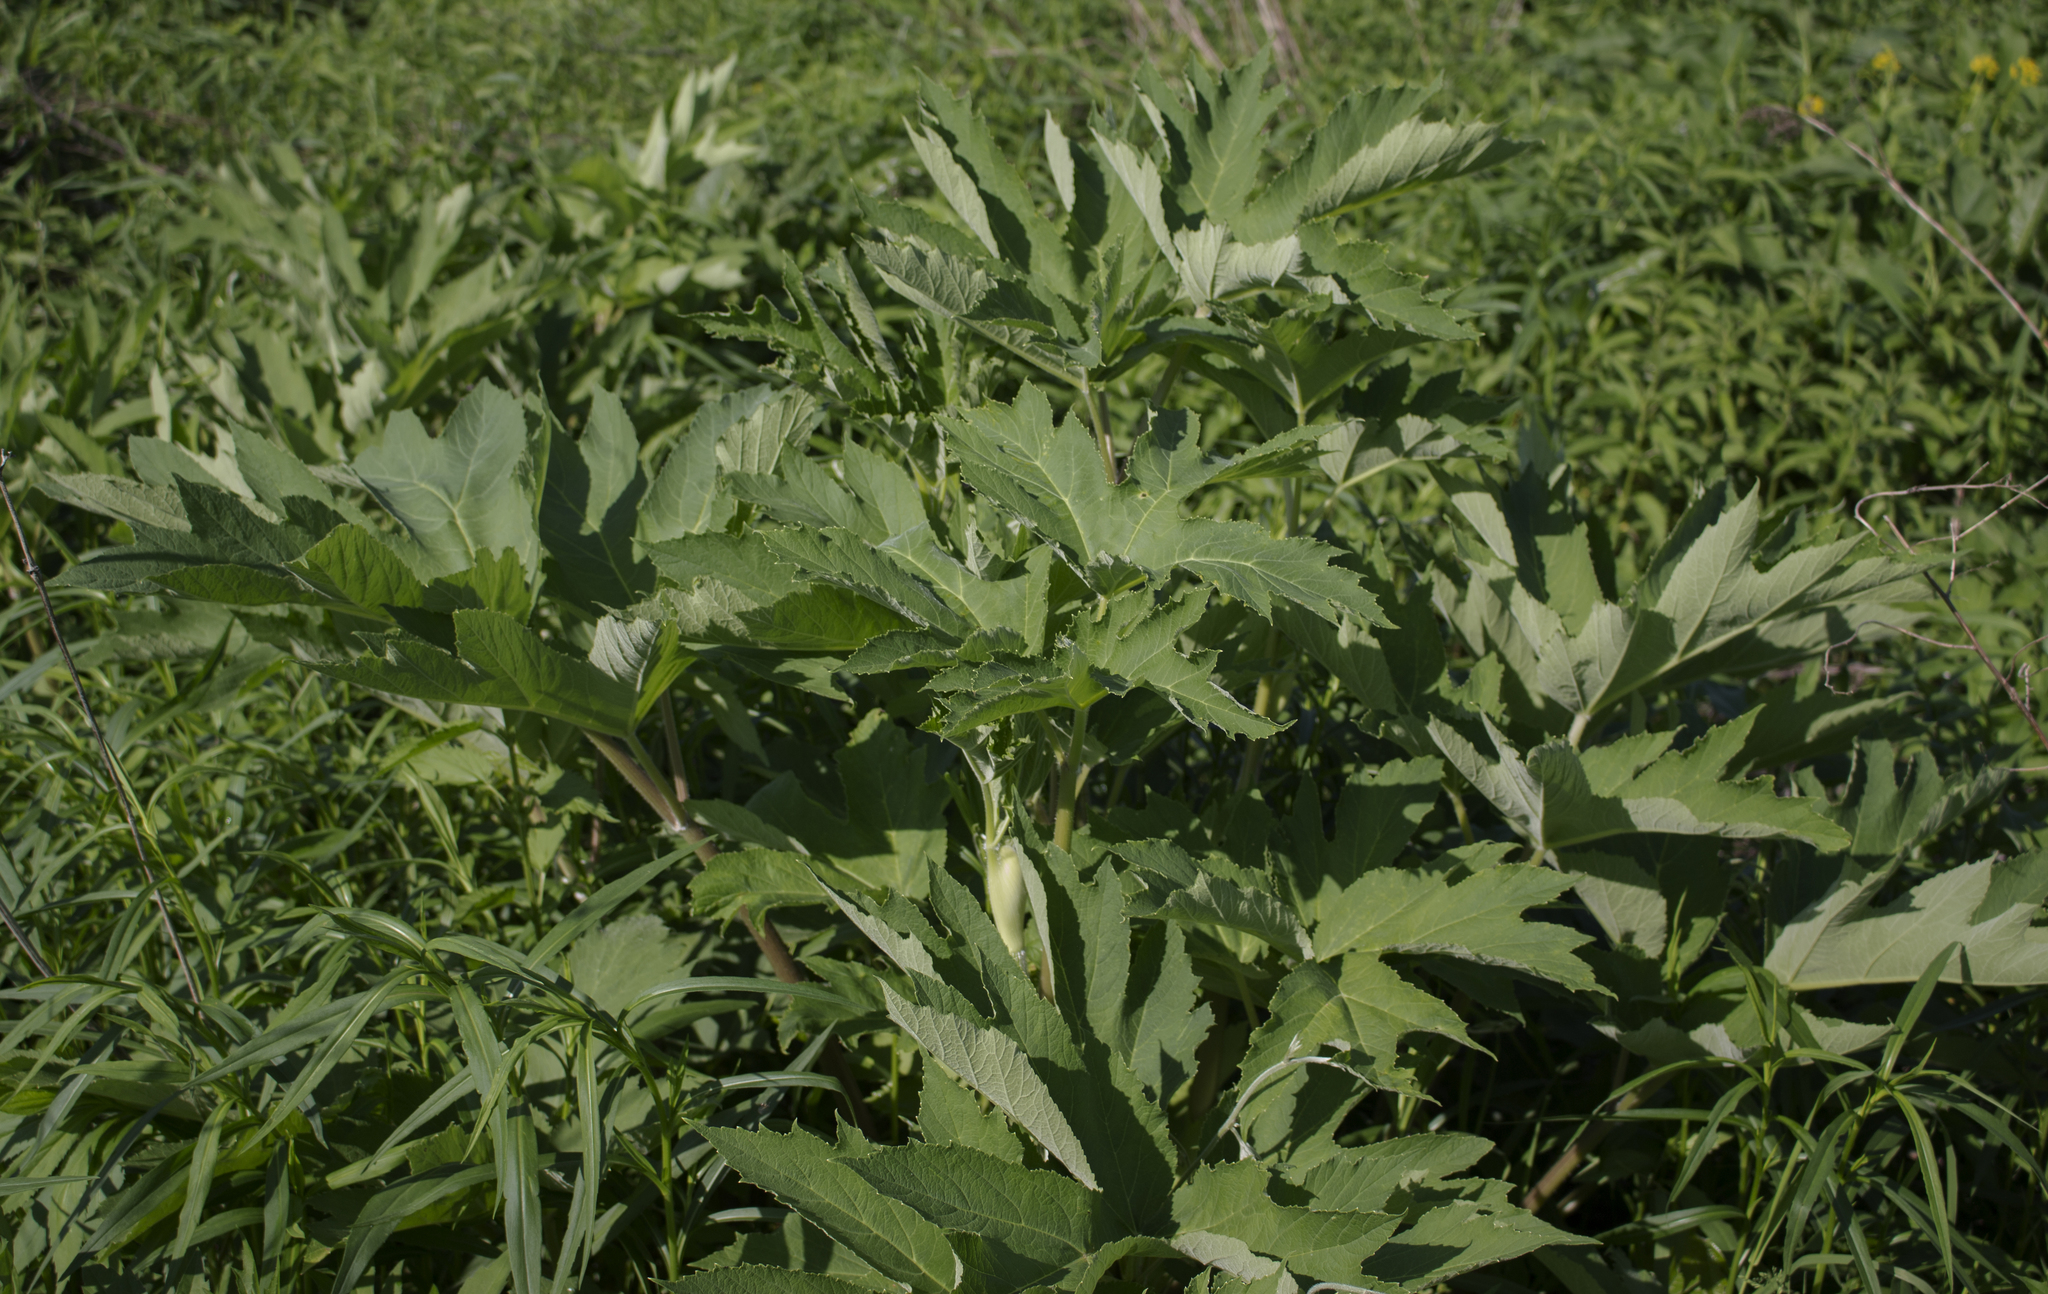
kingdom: Plantae
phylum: Tracheophyta
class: Magnoliopsida
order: Apiales
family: Apiaceae
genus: Heracleum
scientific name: Heracleum maximum
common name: American cow parsnip
